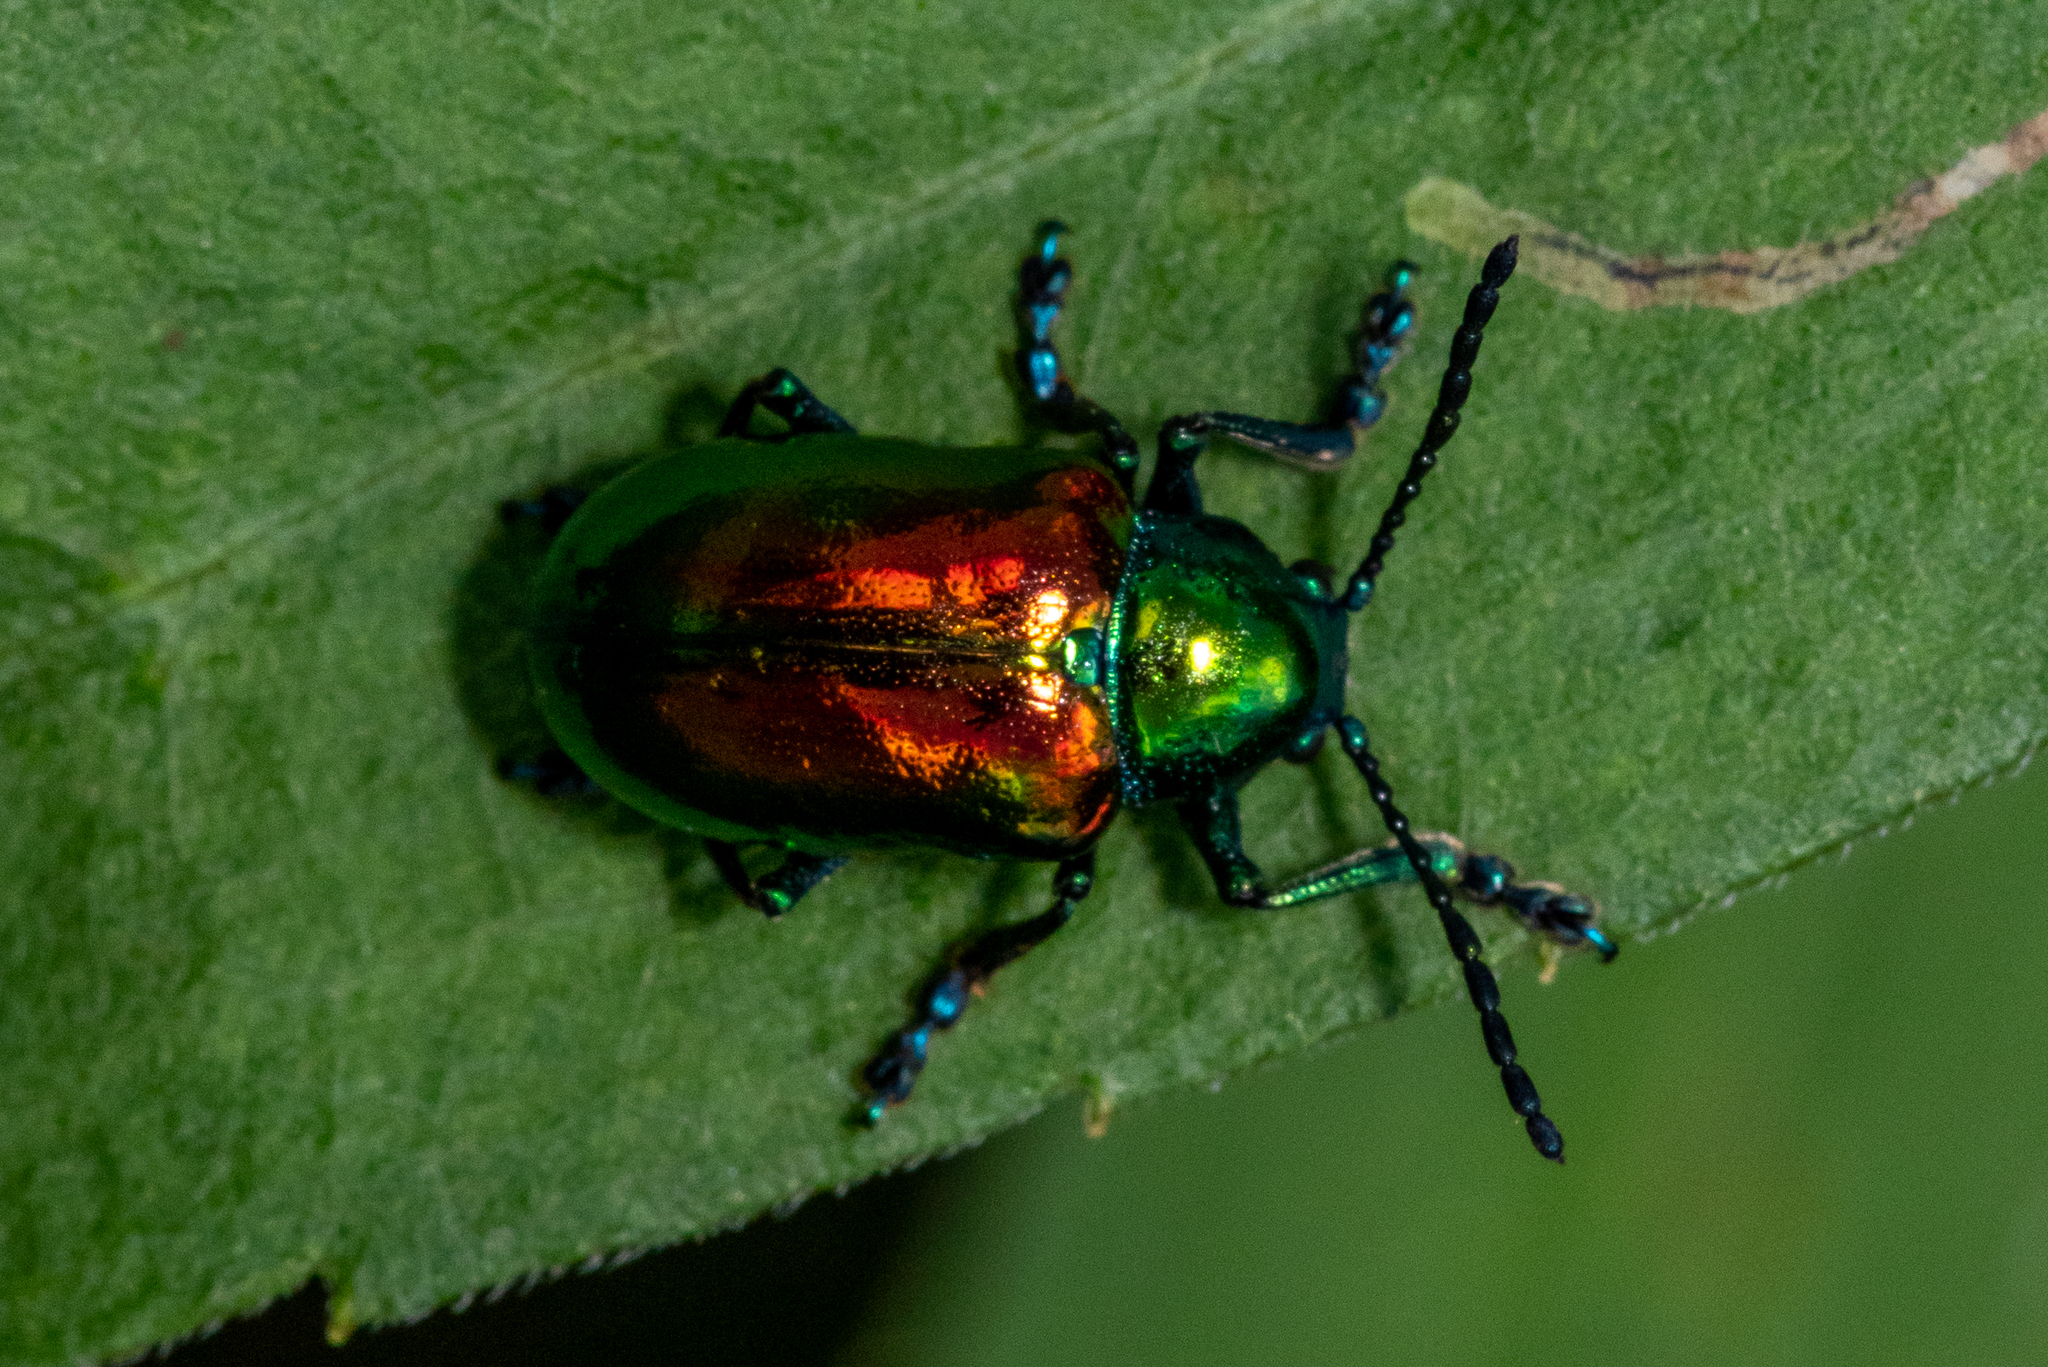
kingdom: Animalia
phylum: Arthropoda
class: Insecta
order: Coleoptera
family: Chrysomelidae
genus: Chrysochus
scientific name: Chrysochus auratus
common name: Dogbane leaf beetle
